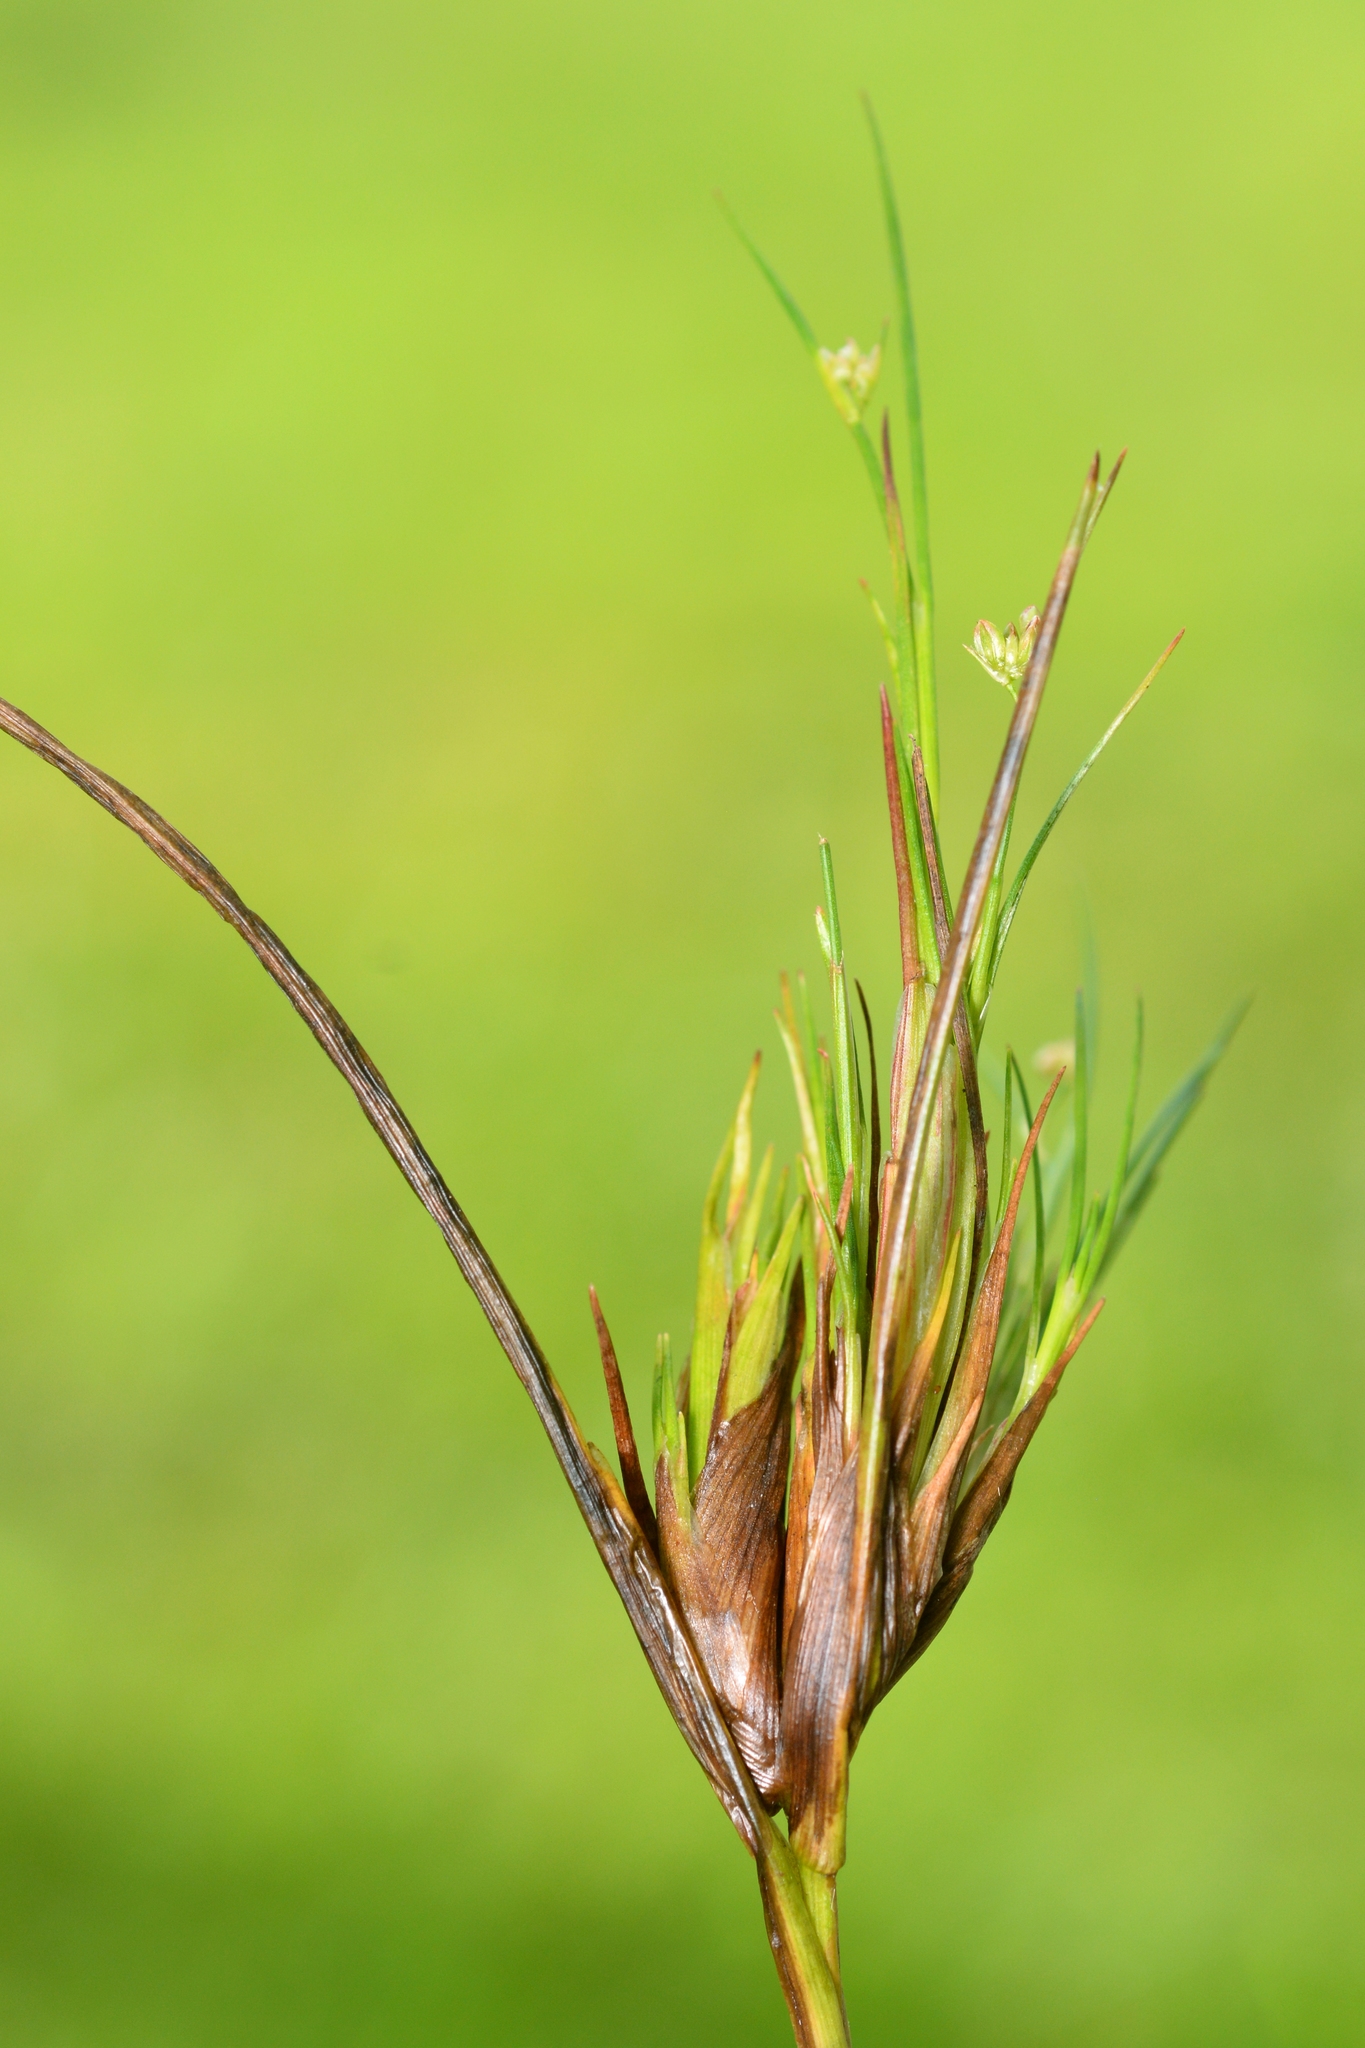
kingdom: Animalia
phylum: Arthropoda
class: Insecta
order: Hemiptera
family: Liviidae
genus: Livia
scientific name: Livia junci
